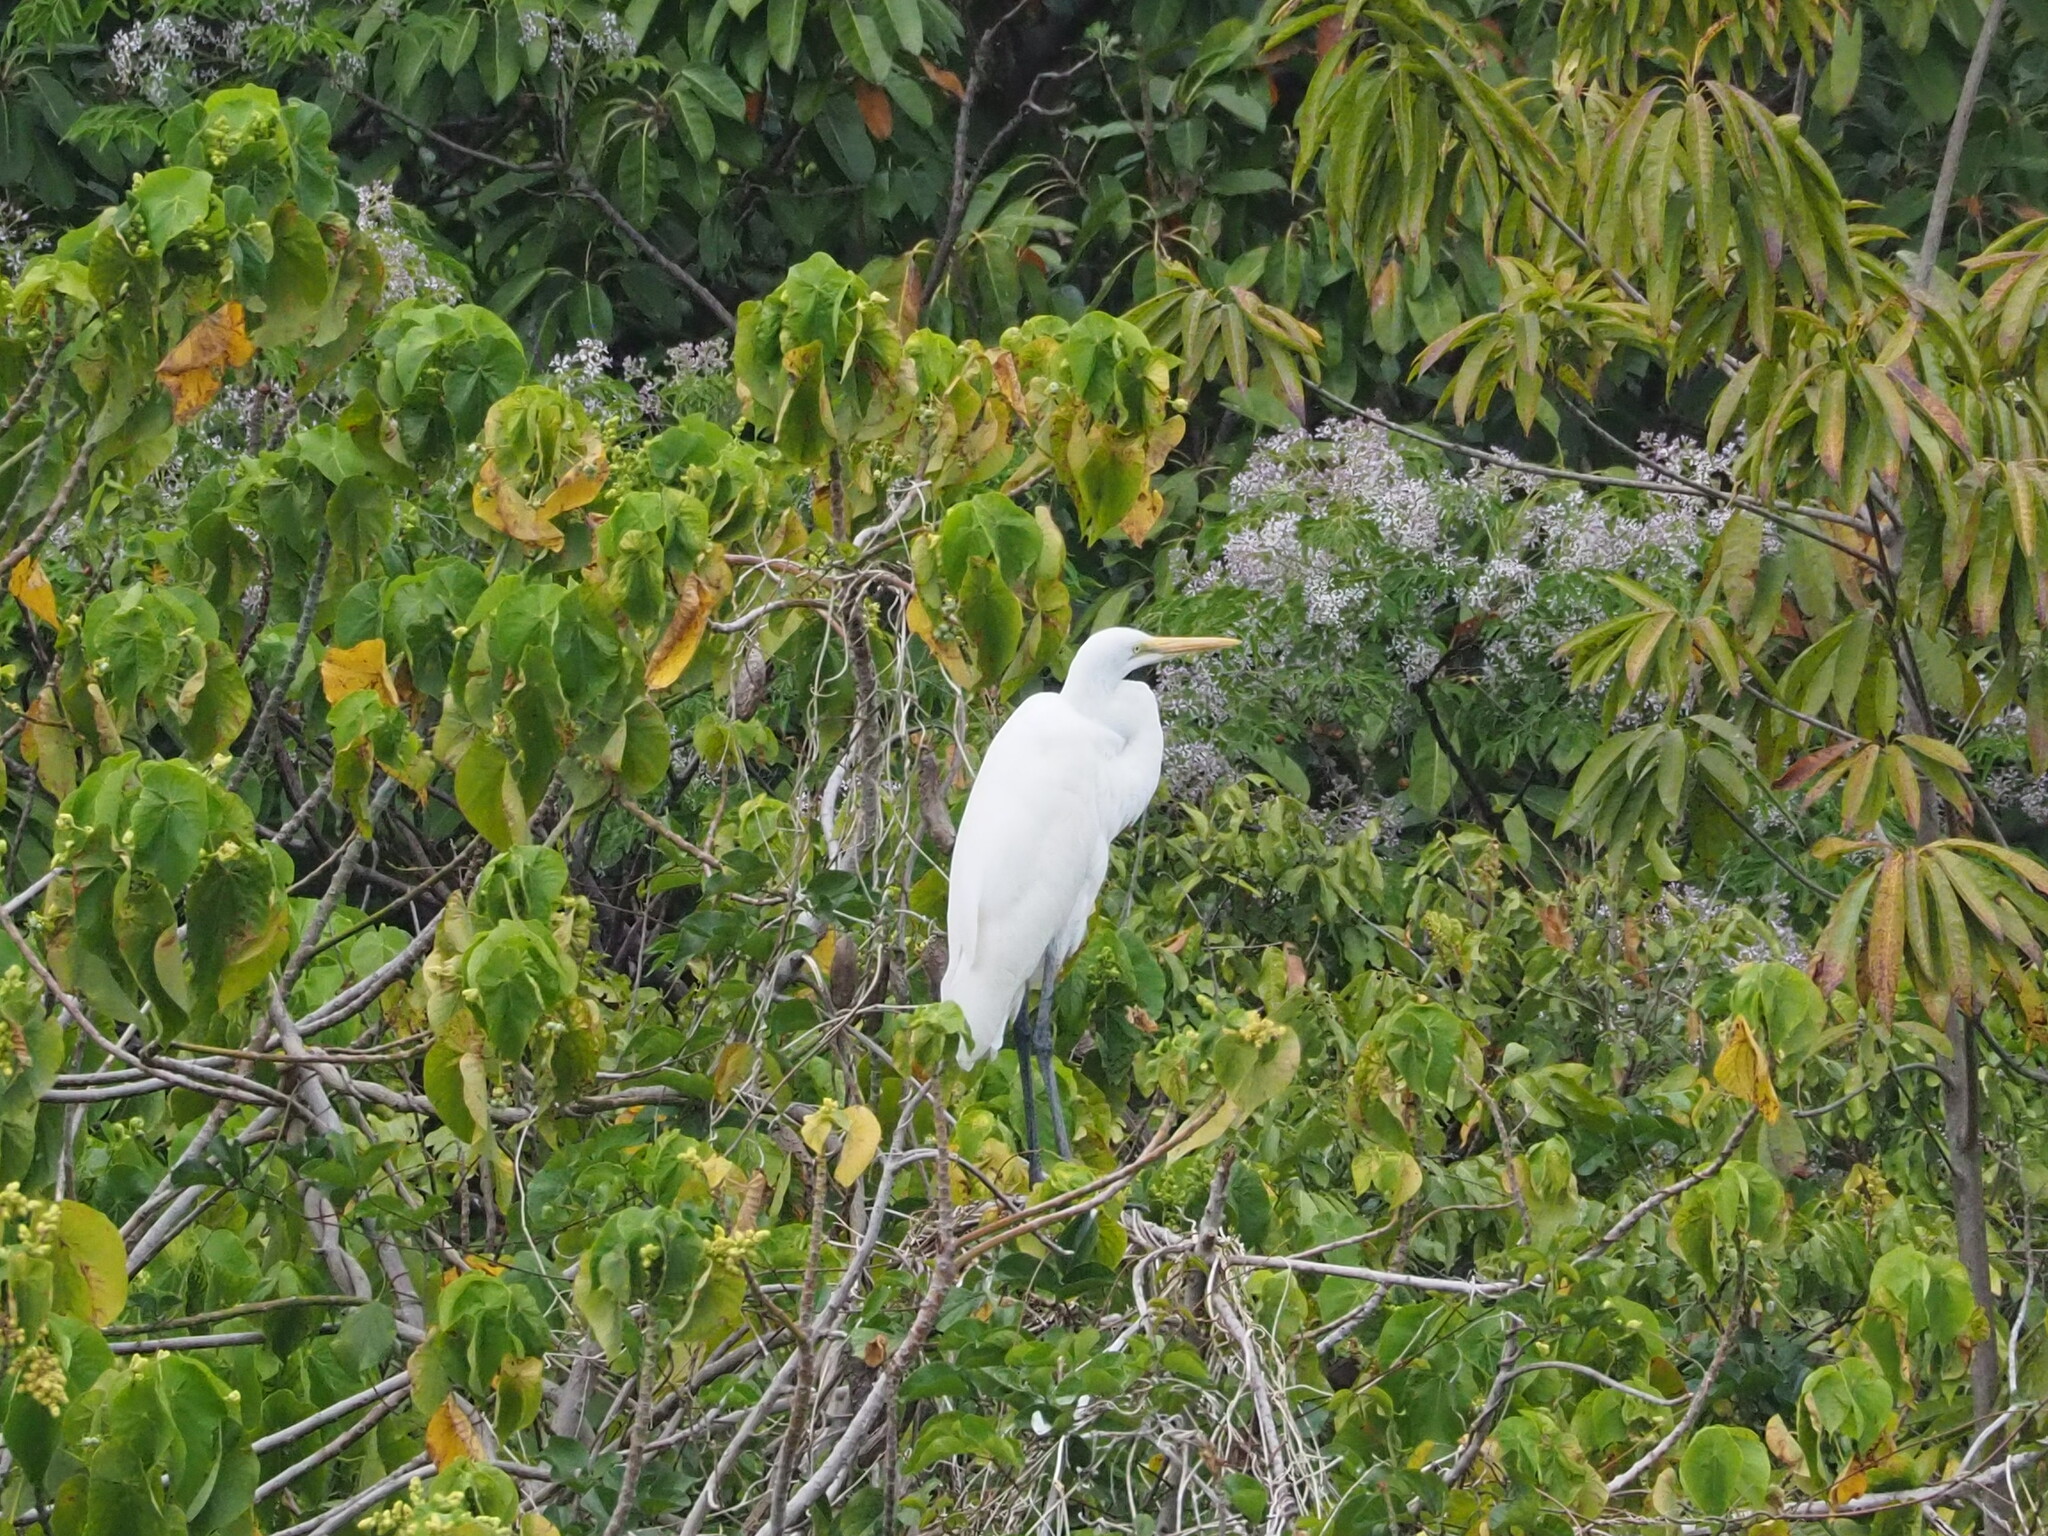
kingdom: Animalia
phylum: Chordata
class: Aves
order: Pelecaniformes
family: Ardeidae
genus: Ardea
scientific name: Ardea alba
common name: Great egret
